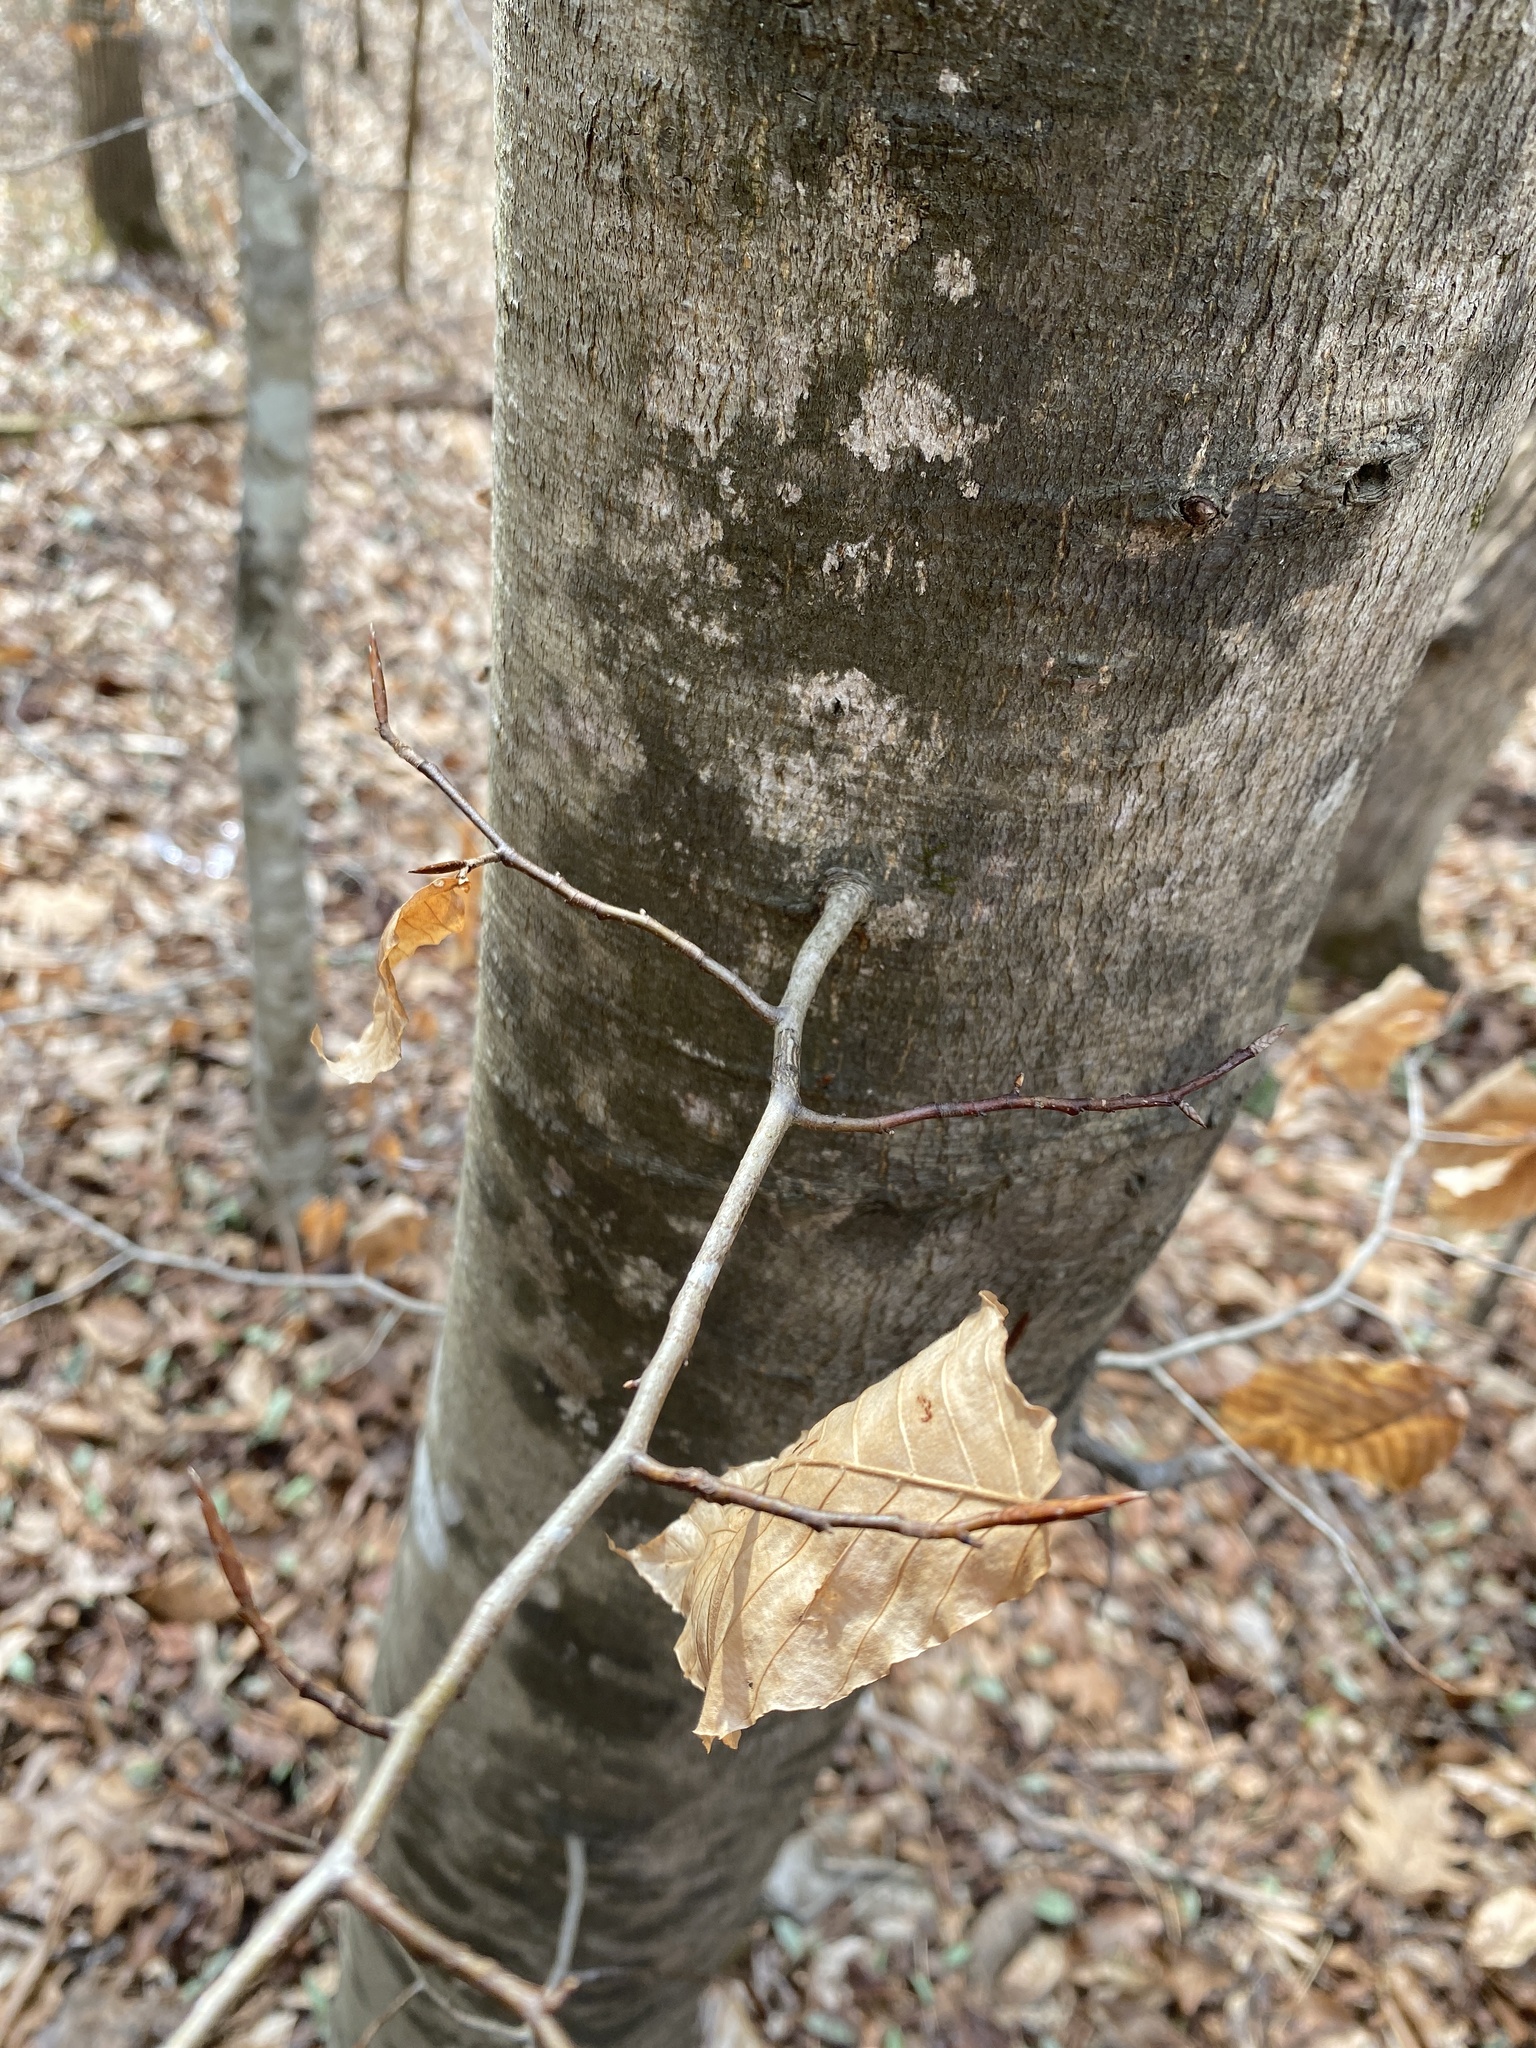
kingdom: Plantae
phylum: Tracheophyta
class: Magnoliopsida
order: Fagales
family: Fagaceae
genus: Fagus
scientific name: Fagus grandifolia
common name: American beech
